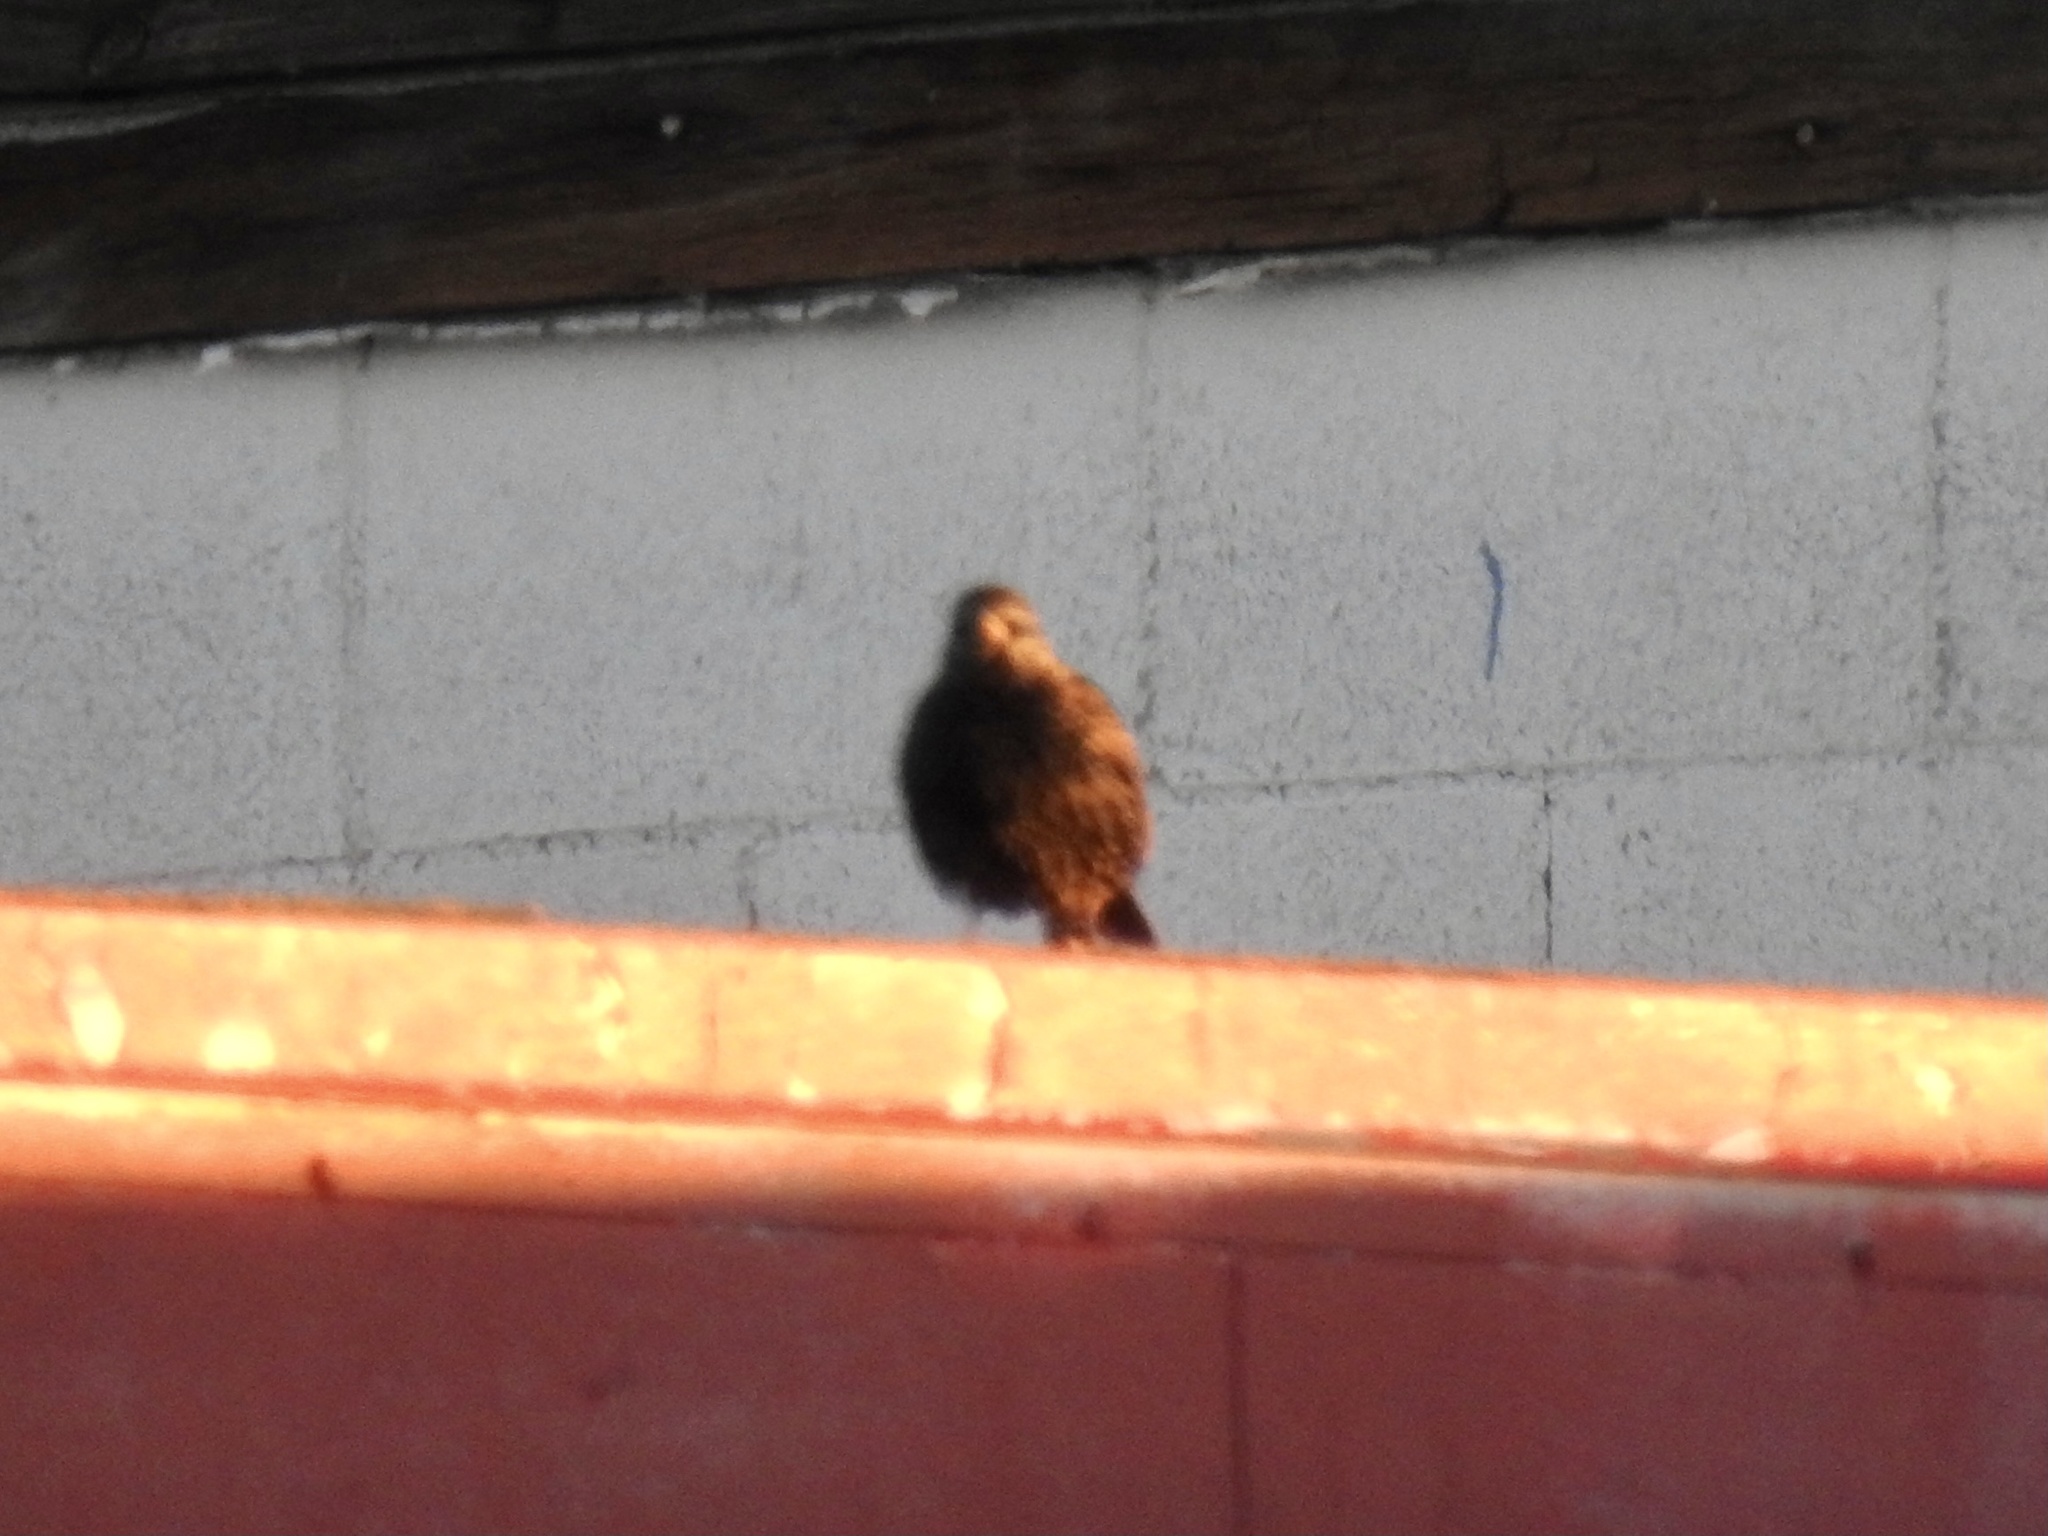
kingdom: Animalia
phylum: Chordata
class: Aves
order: Passeriformes
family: Sturnidae
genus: Sturnus
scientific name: Sturnus vulgaris
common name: Common starling
